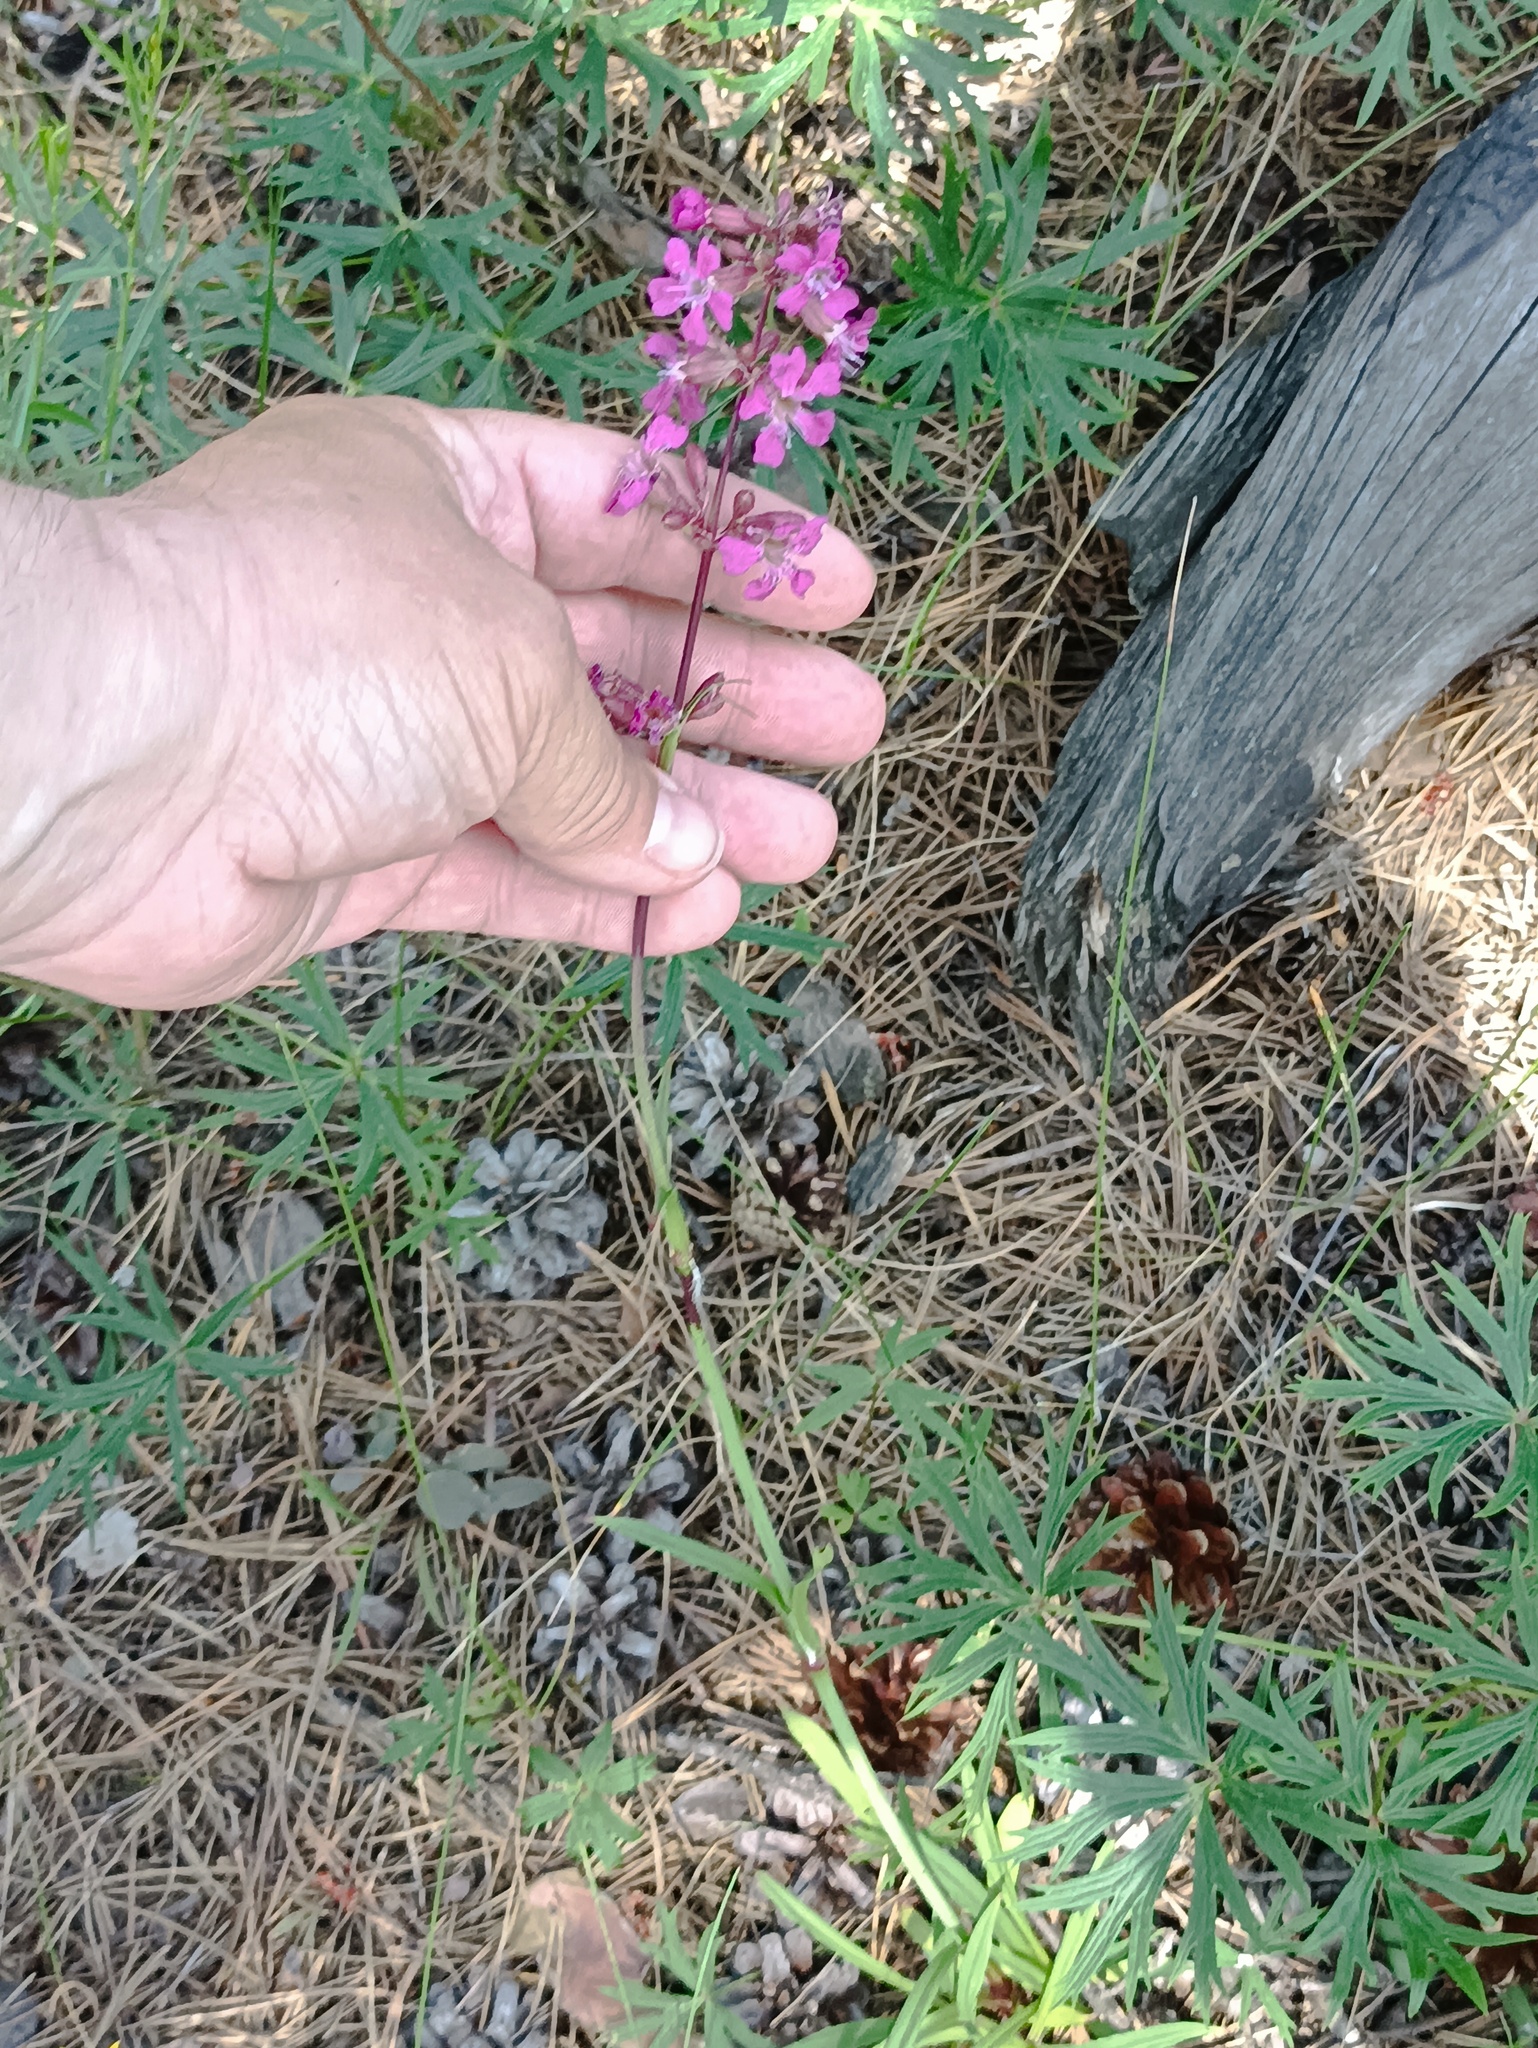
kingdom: Plantae
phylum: Tracheophyta
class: Magnoliopsida
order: Caryophyllales
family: Caryophyllaceae
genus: Viscaria
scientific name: Viscaria vulgaris
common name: Clammy campion
